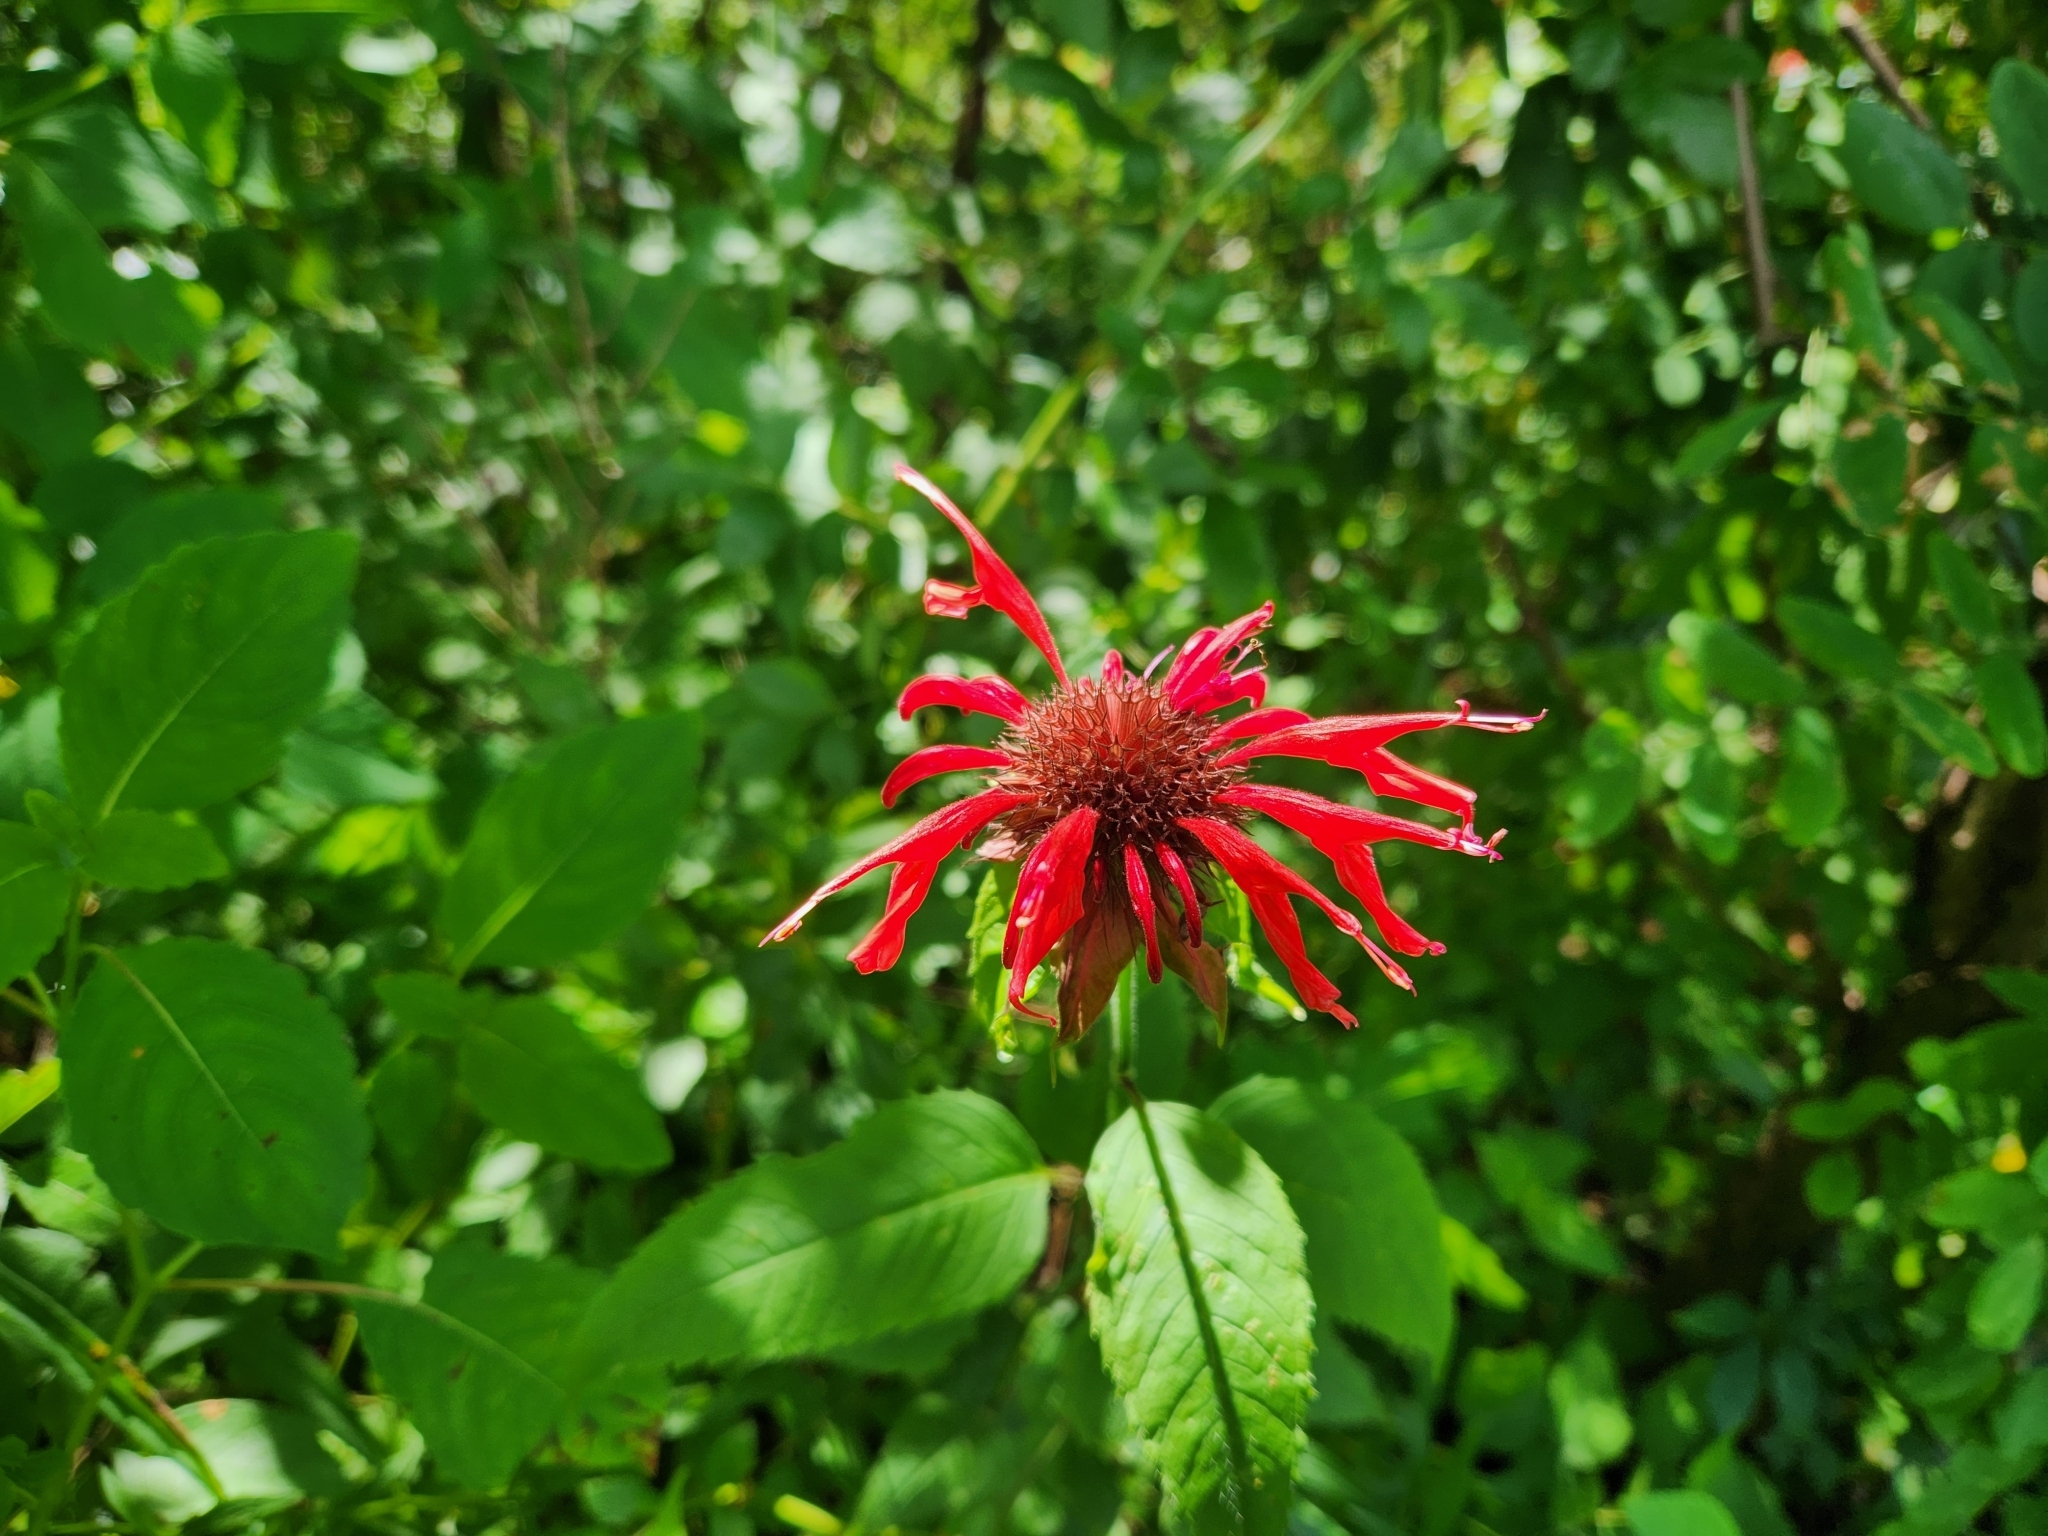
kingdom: Plantae
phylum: Tracheophyta
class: Magnoliopsida
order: Lamiales
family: Lamiaceae
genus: Monarda
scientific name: Monarda didyma
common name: Beebalm
